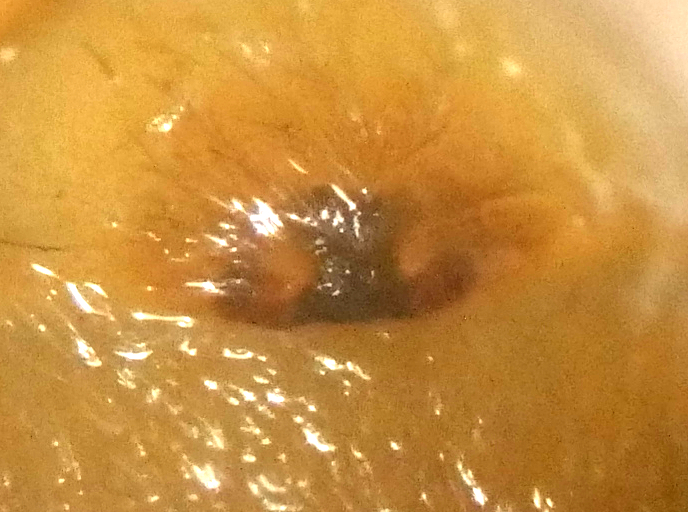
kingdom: Animalia
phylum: Arthropoda
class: Arachnida
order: Araneae
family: Clubionidae
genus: Clubiona
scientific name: Clubiona stagnatilis
